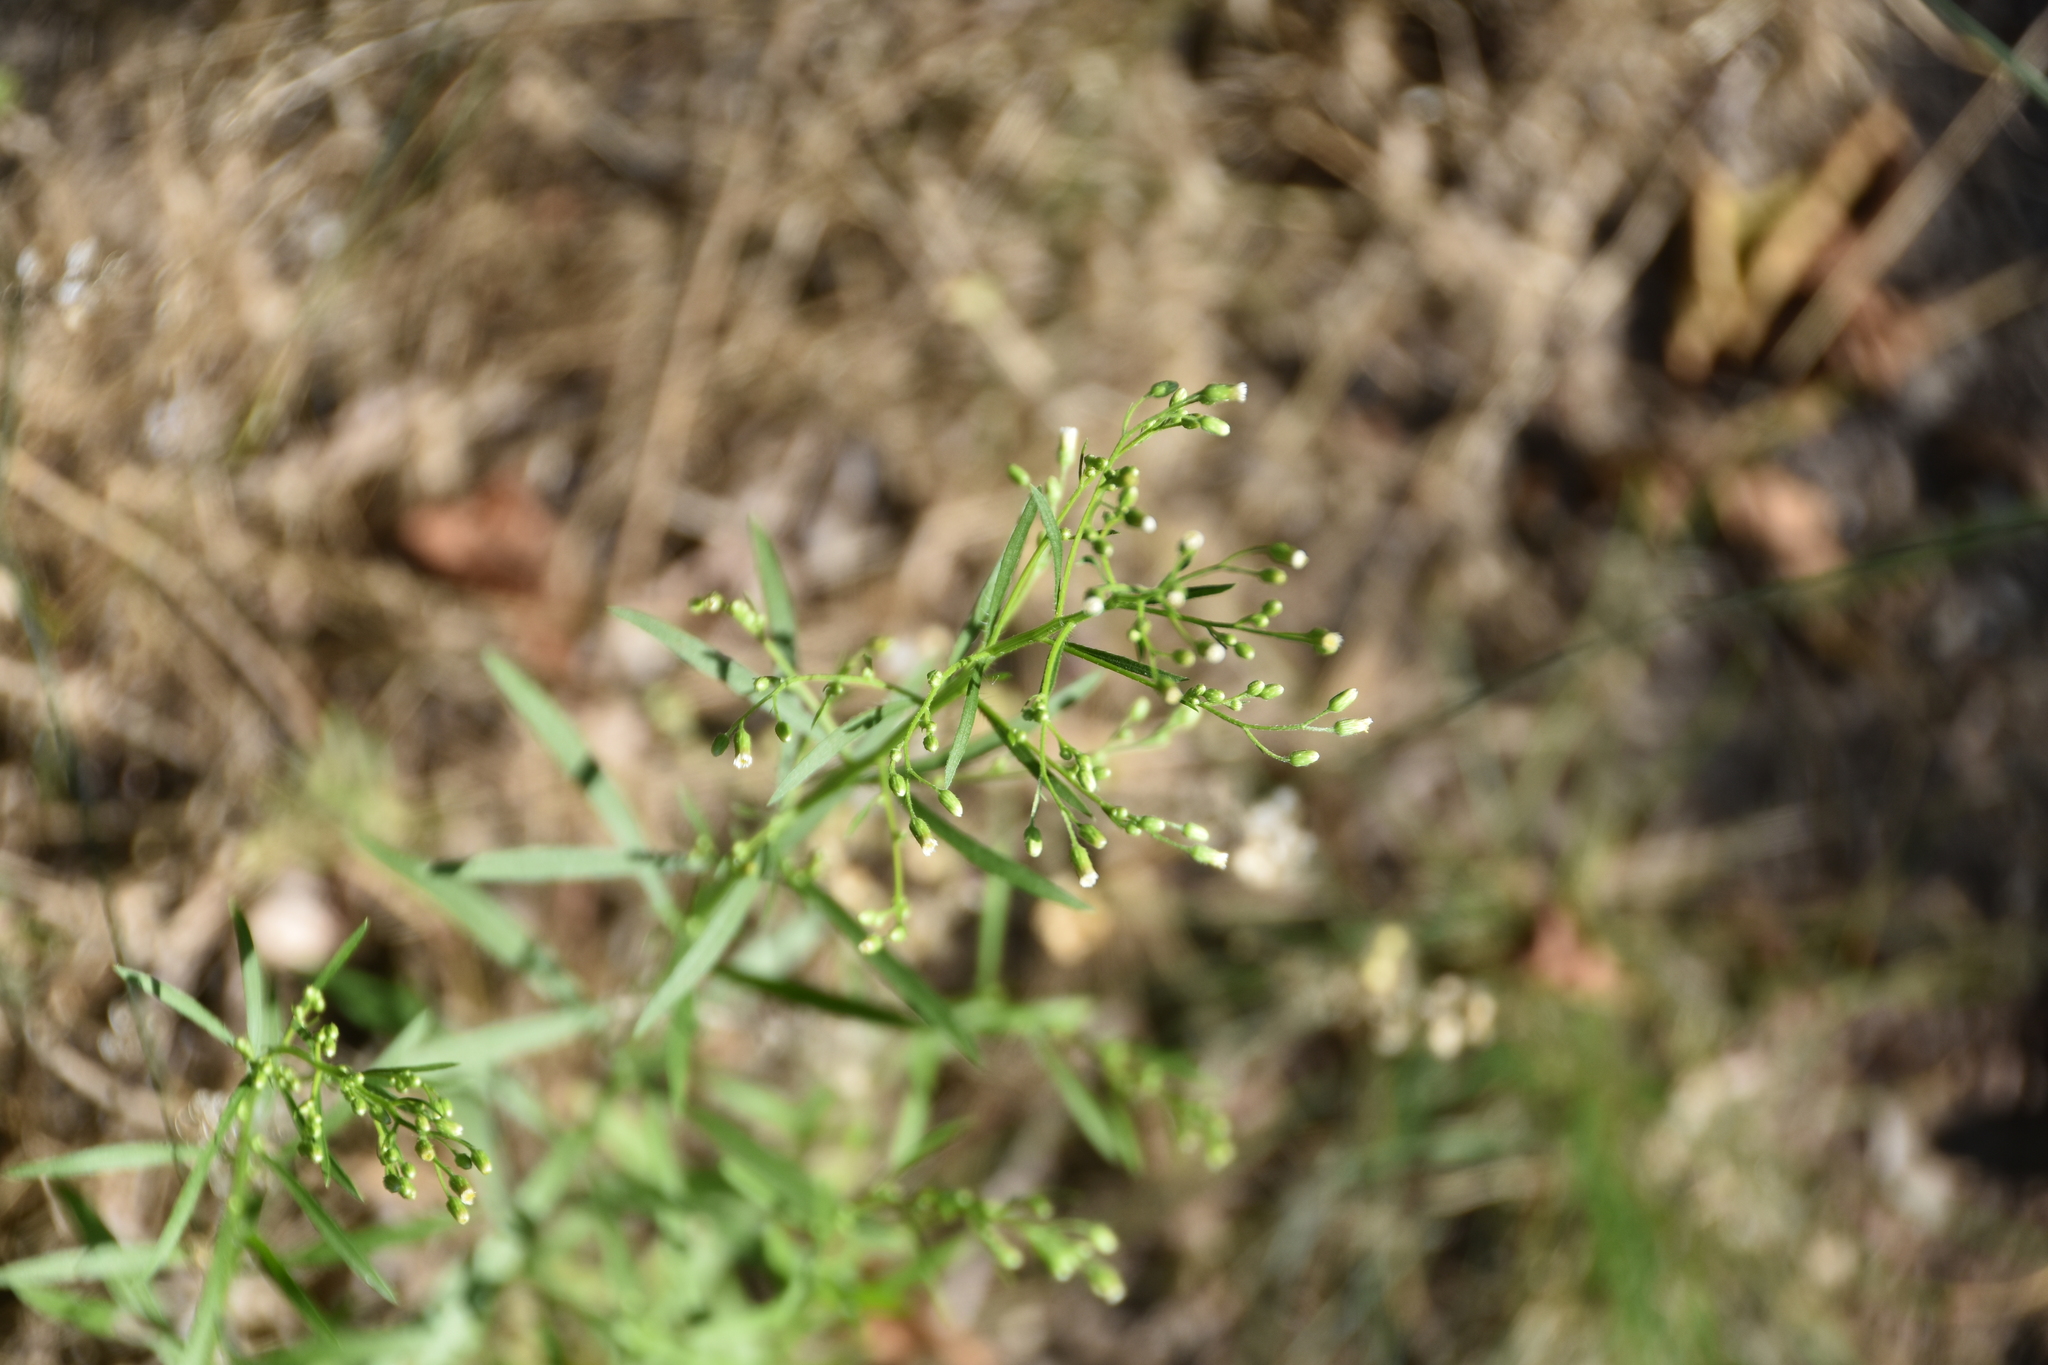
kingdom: Plantae
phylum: Tracheophyta
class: Magnoliopsida
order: Asterales
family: Asteraceae
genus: Erigeron
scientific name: Erigeron canadensis
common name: Canadian fleabane
